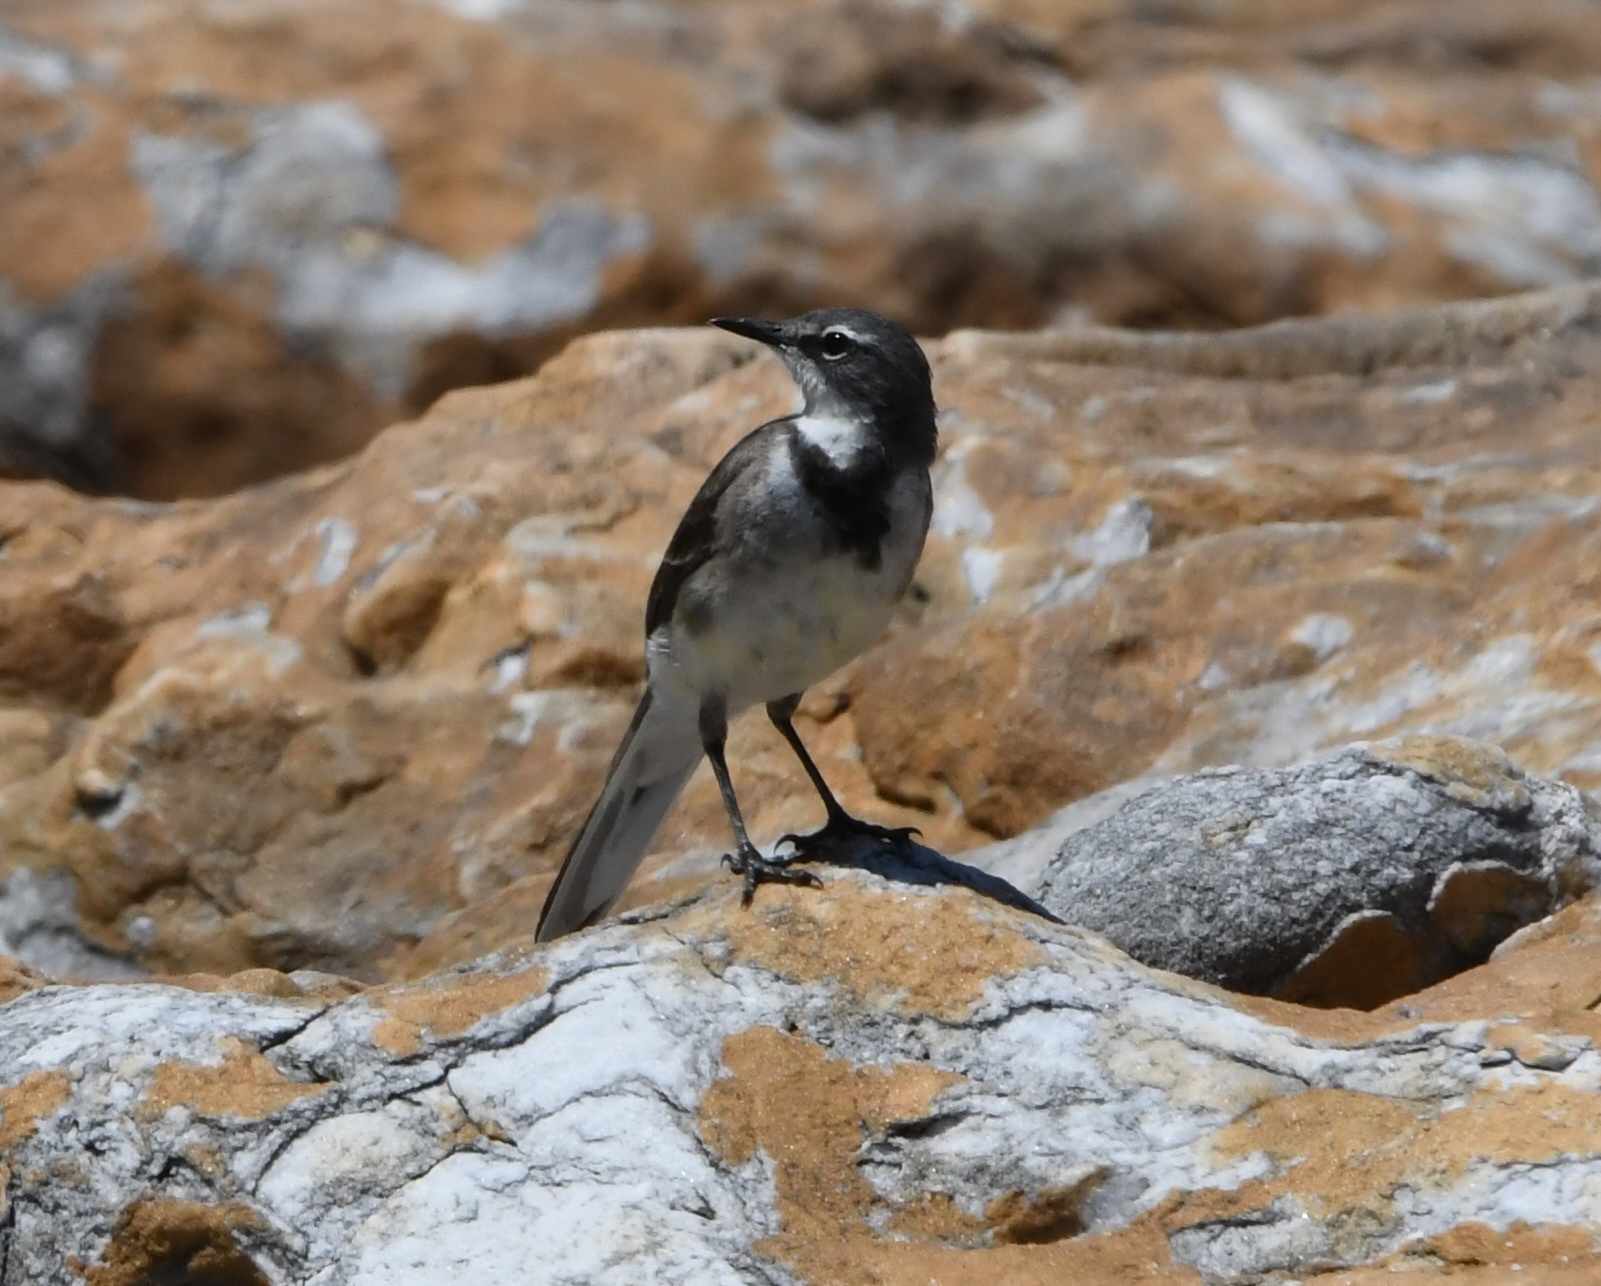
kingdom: Animalia
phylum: Chordata
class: Aves
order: Passeriformes
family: Motacillidae
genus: Motacilla
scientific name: Motacilla capensis
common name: Cape wagtail
